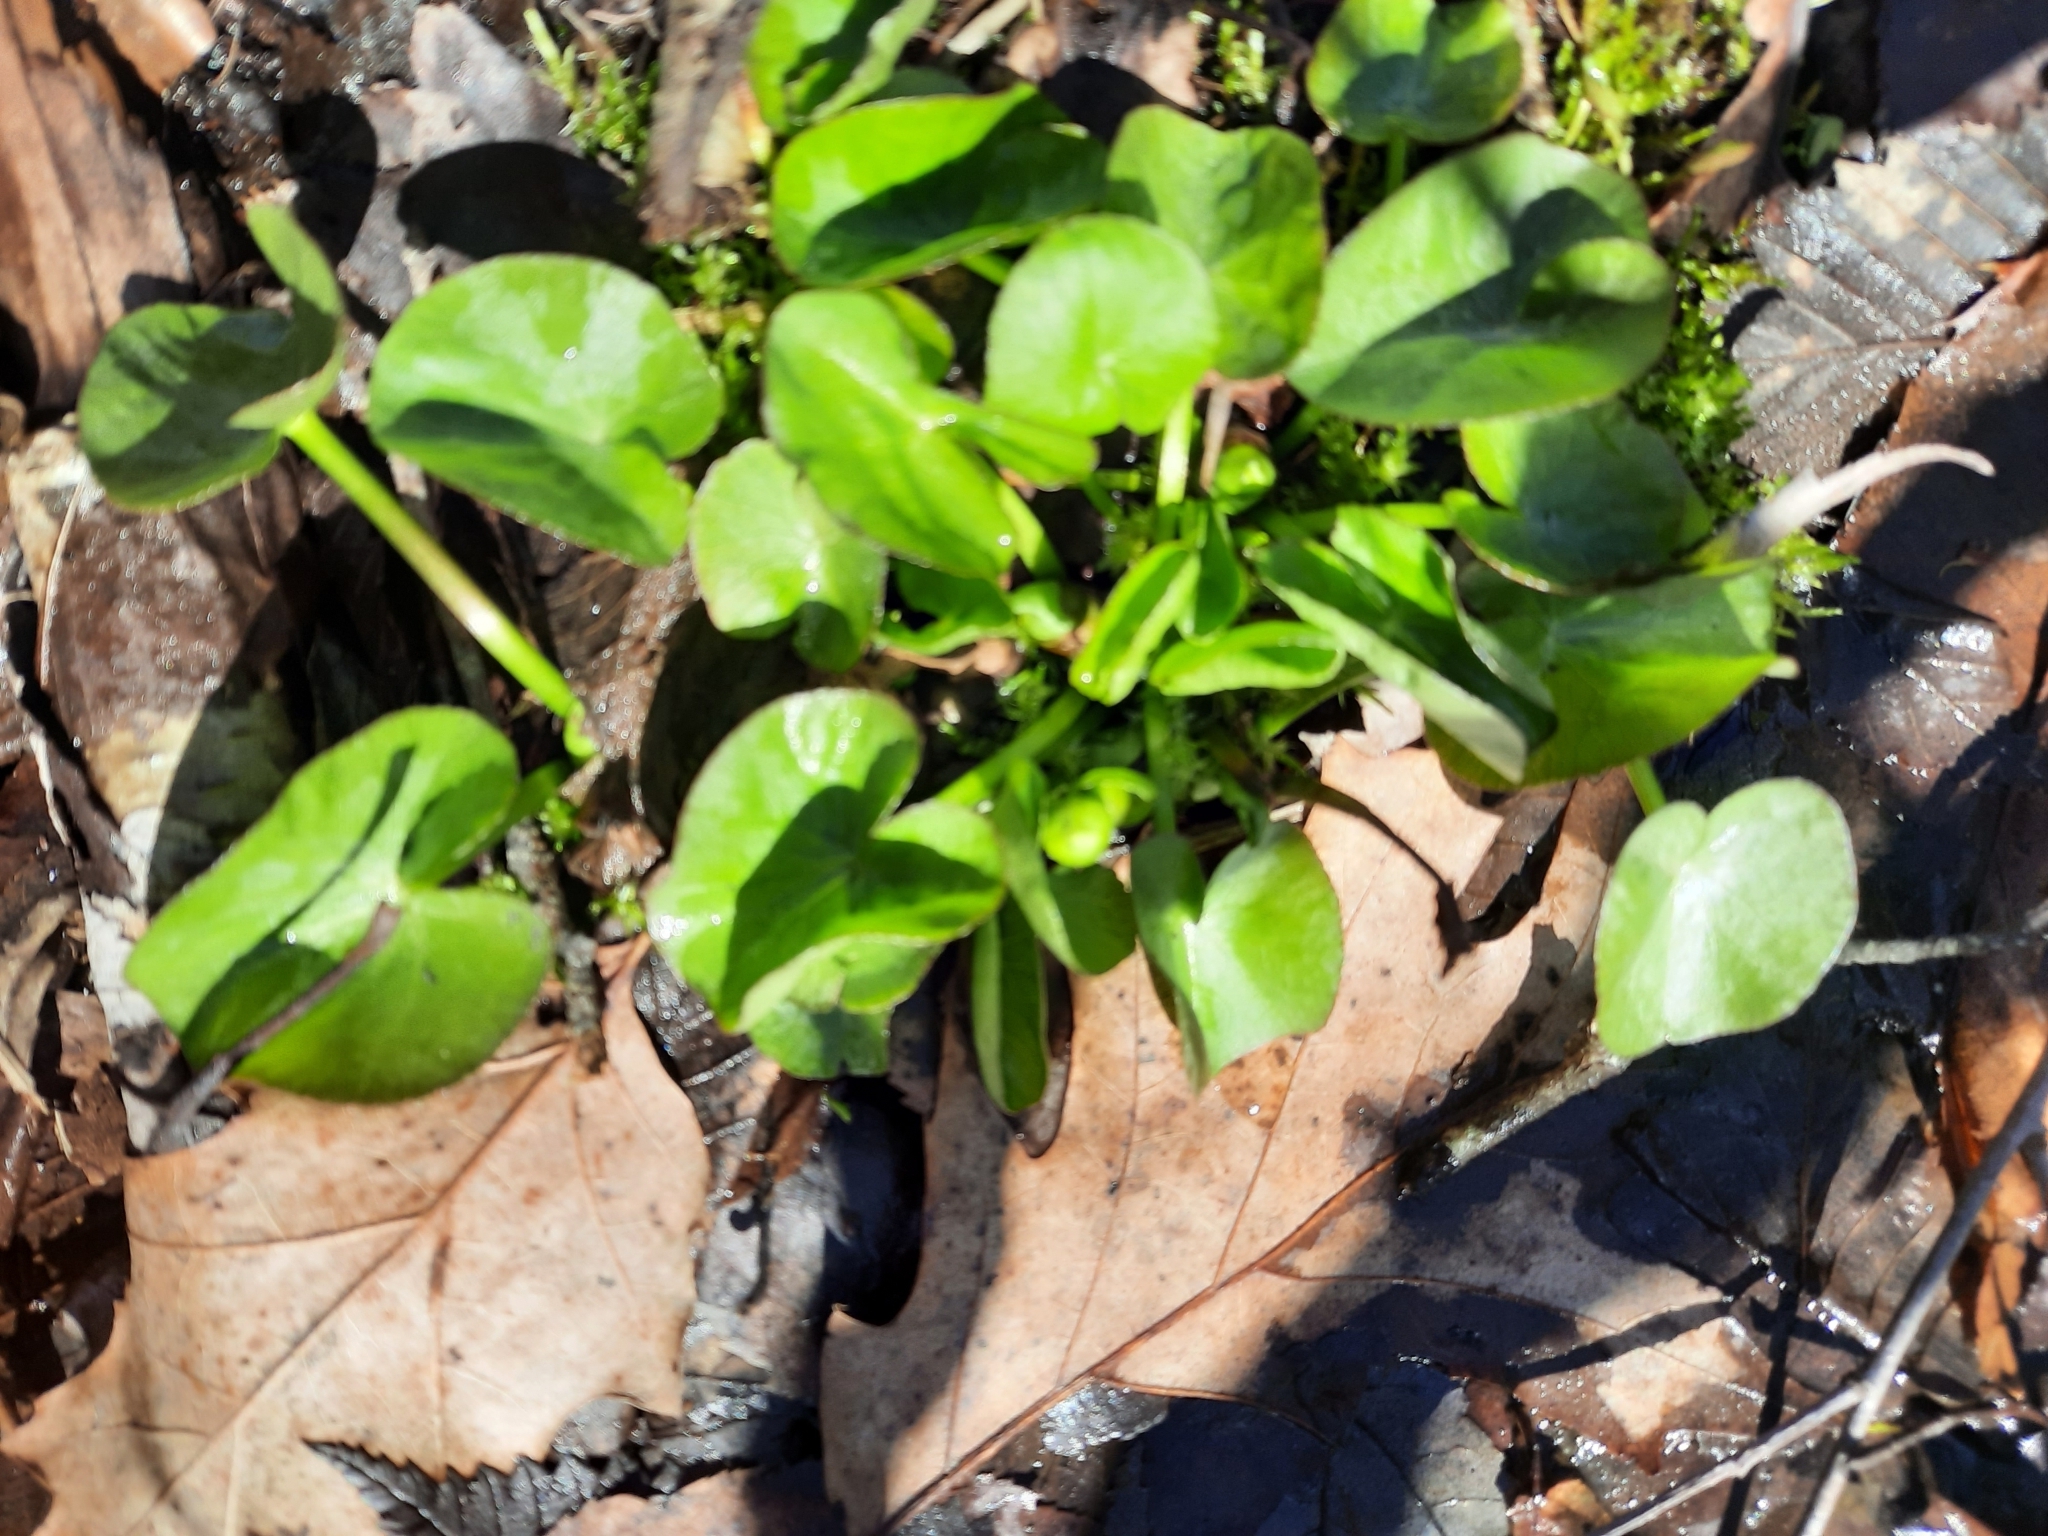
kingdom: Plantae
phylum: Tracheophyta
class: Magnoliopsida
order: Ranunculales
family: Ranunculaceae
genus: Caltha
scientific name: Caltha palustris
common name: Marsh marigold
